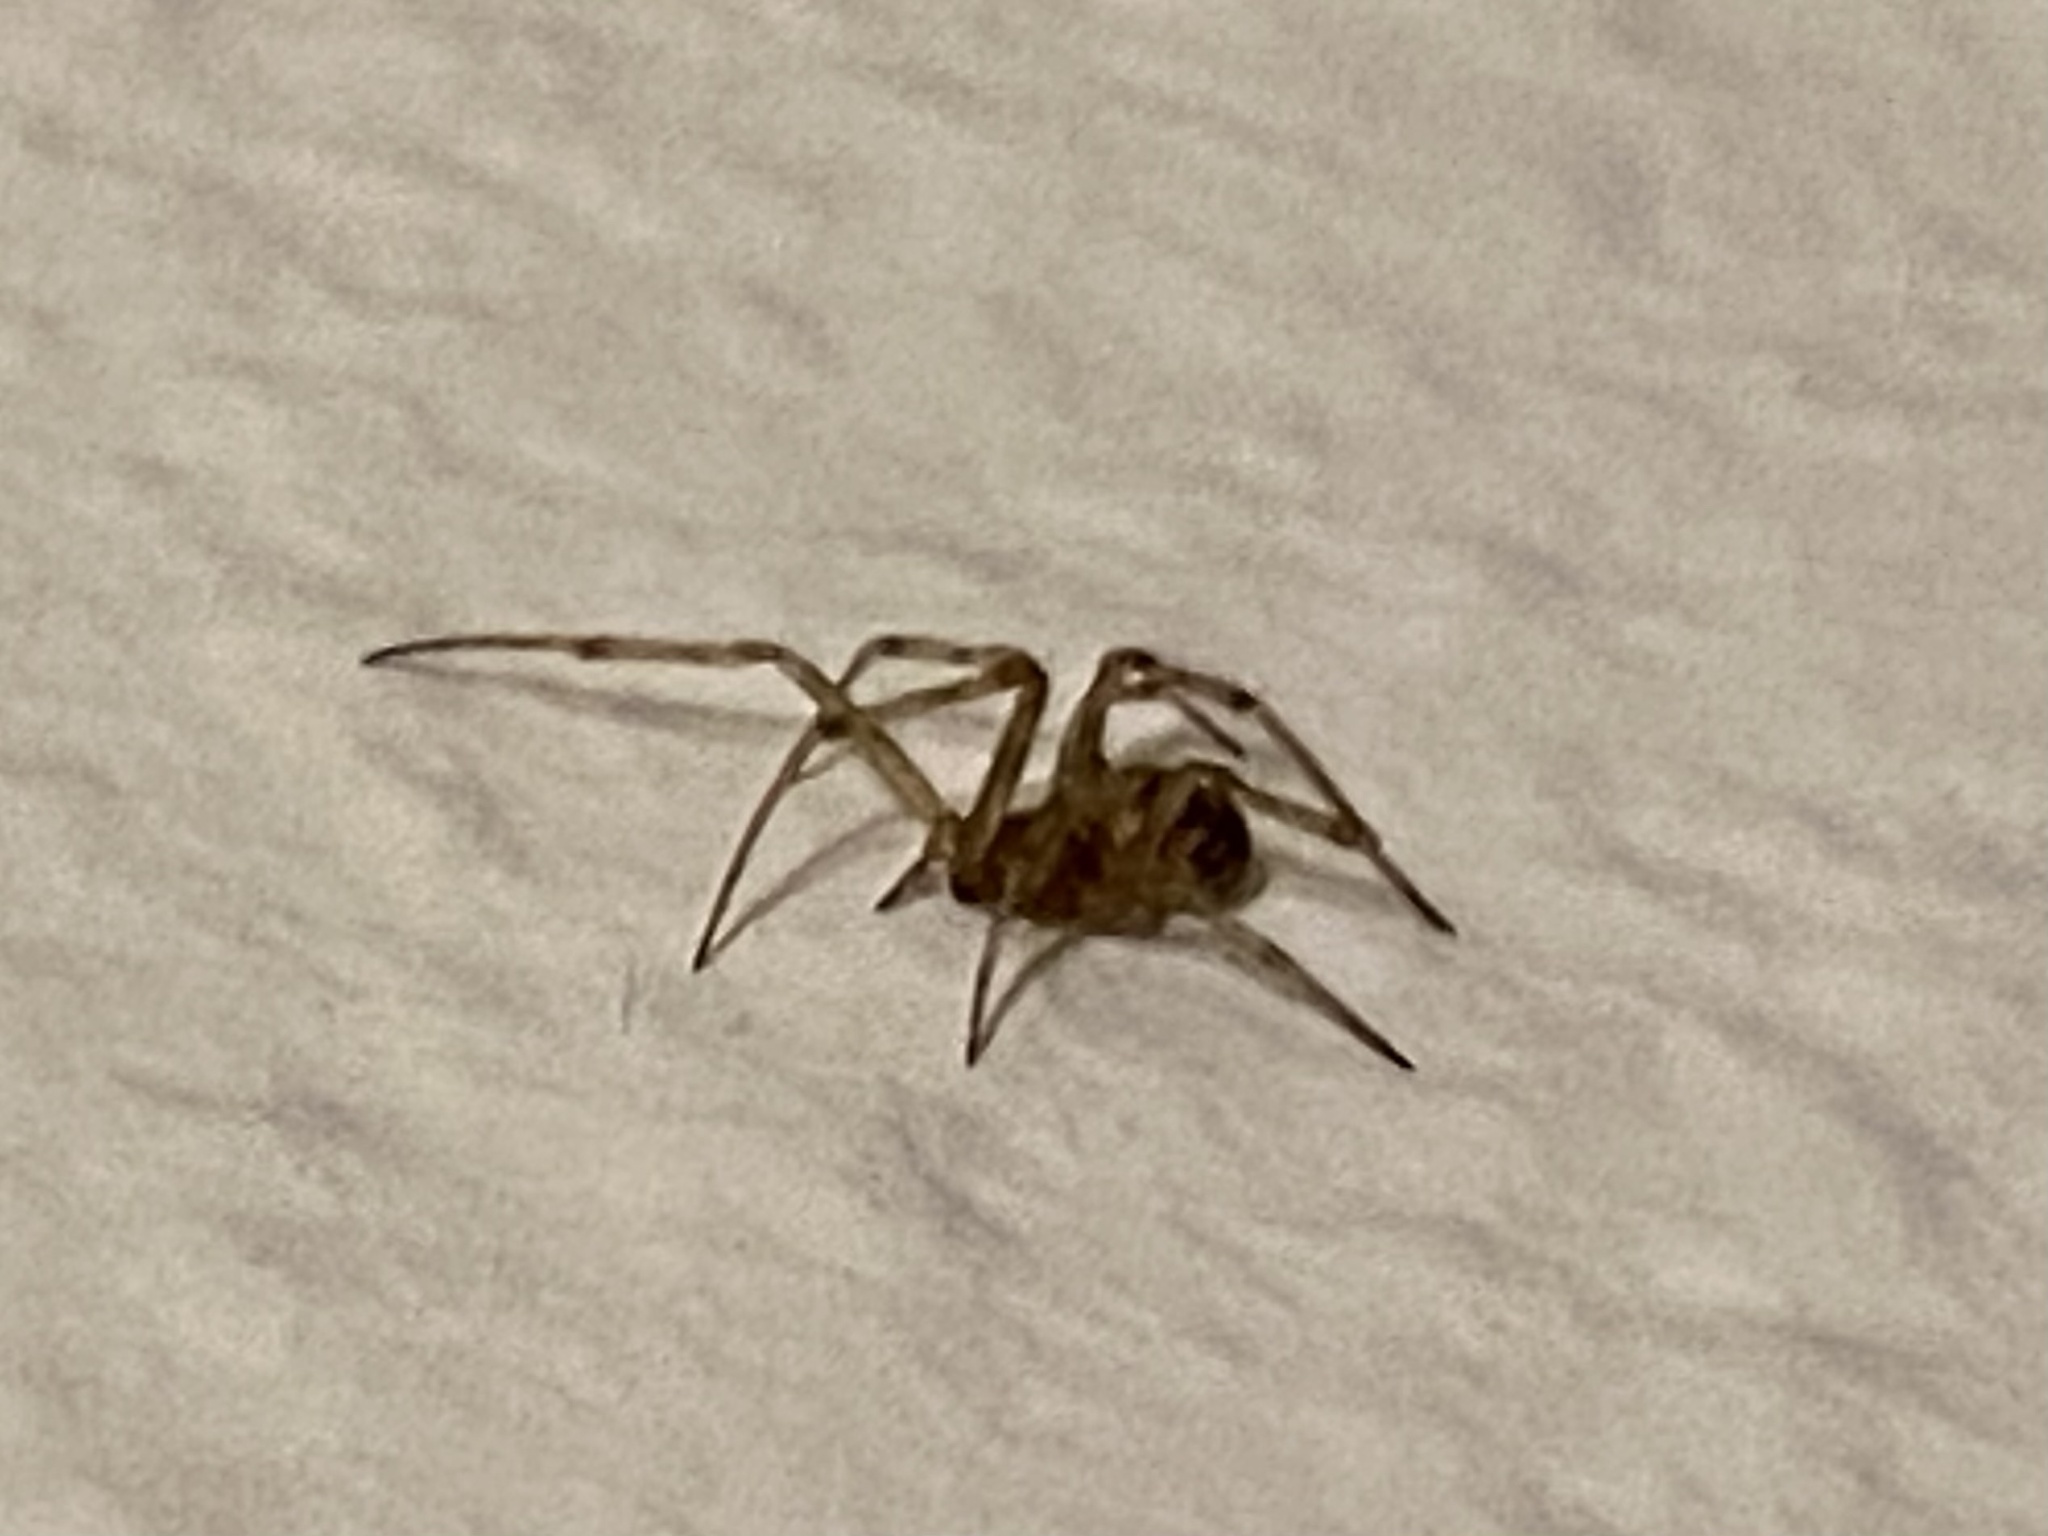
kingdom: Animalia
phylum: Arthropoda
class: Arachnida
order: Araneae
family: Theridiidae
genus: Steatoda
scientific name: Steatoda triangulosa
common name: Triangulate bud spider
